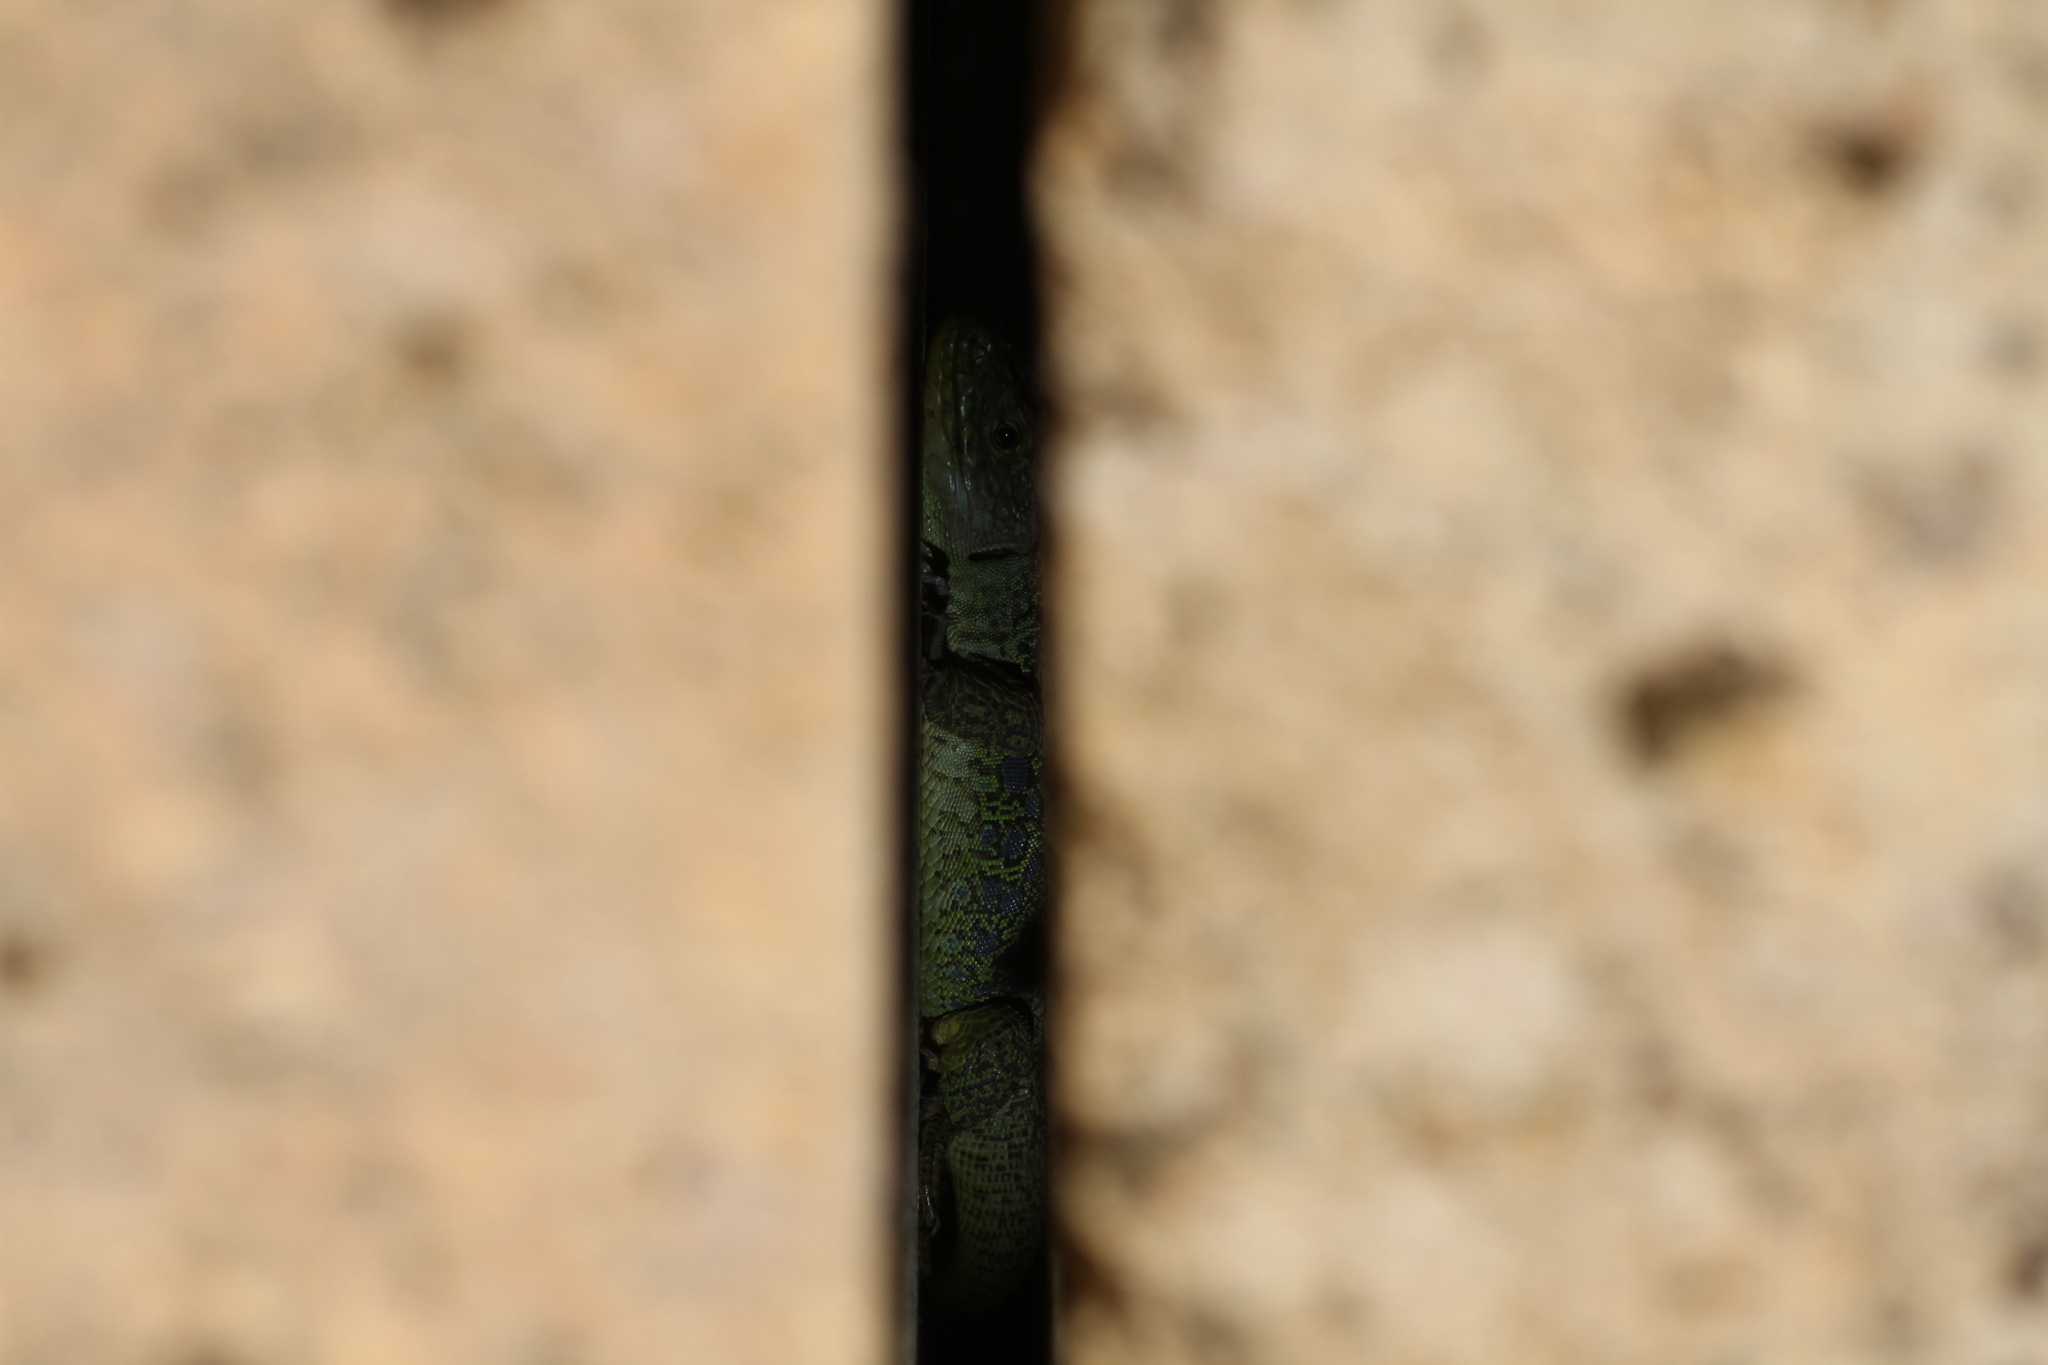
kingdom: Animalia
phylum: Chordata
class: Squamata
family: Lacertidae
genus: Timon
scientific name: Timon lepidus
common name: Ocellated lizard
